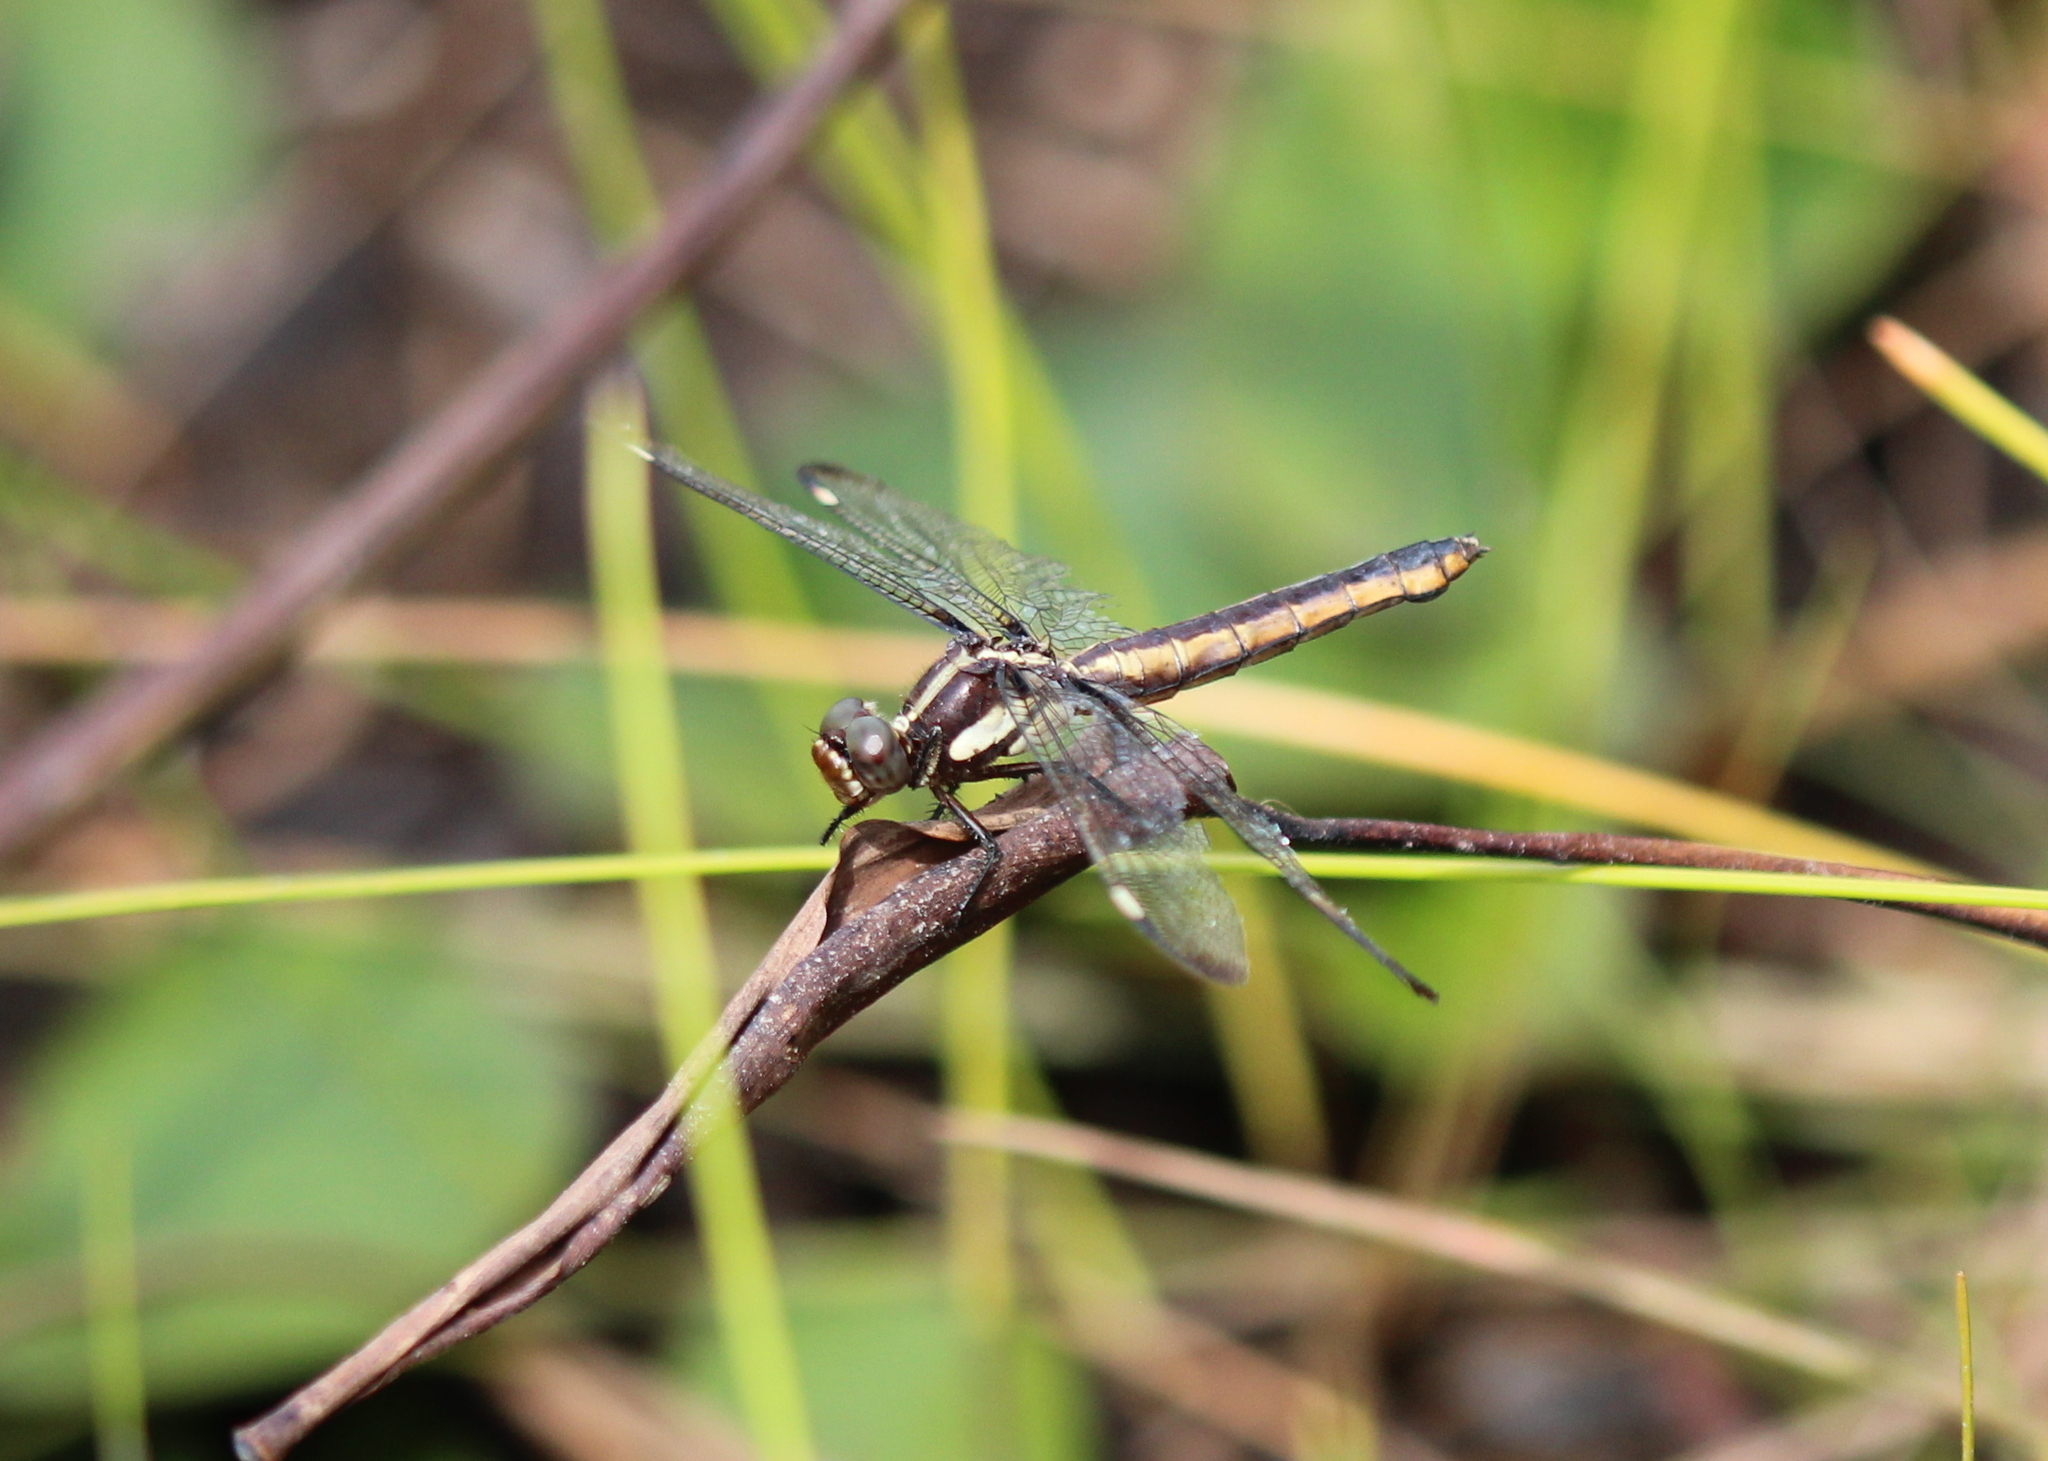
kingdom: Animalia
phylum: Arthropoda
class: Insecta
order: Odonata
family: Libellulidae
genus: Libellula
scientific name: Libellula cyanea
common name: Spangled skimmer
